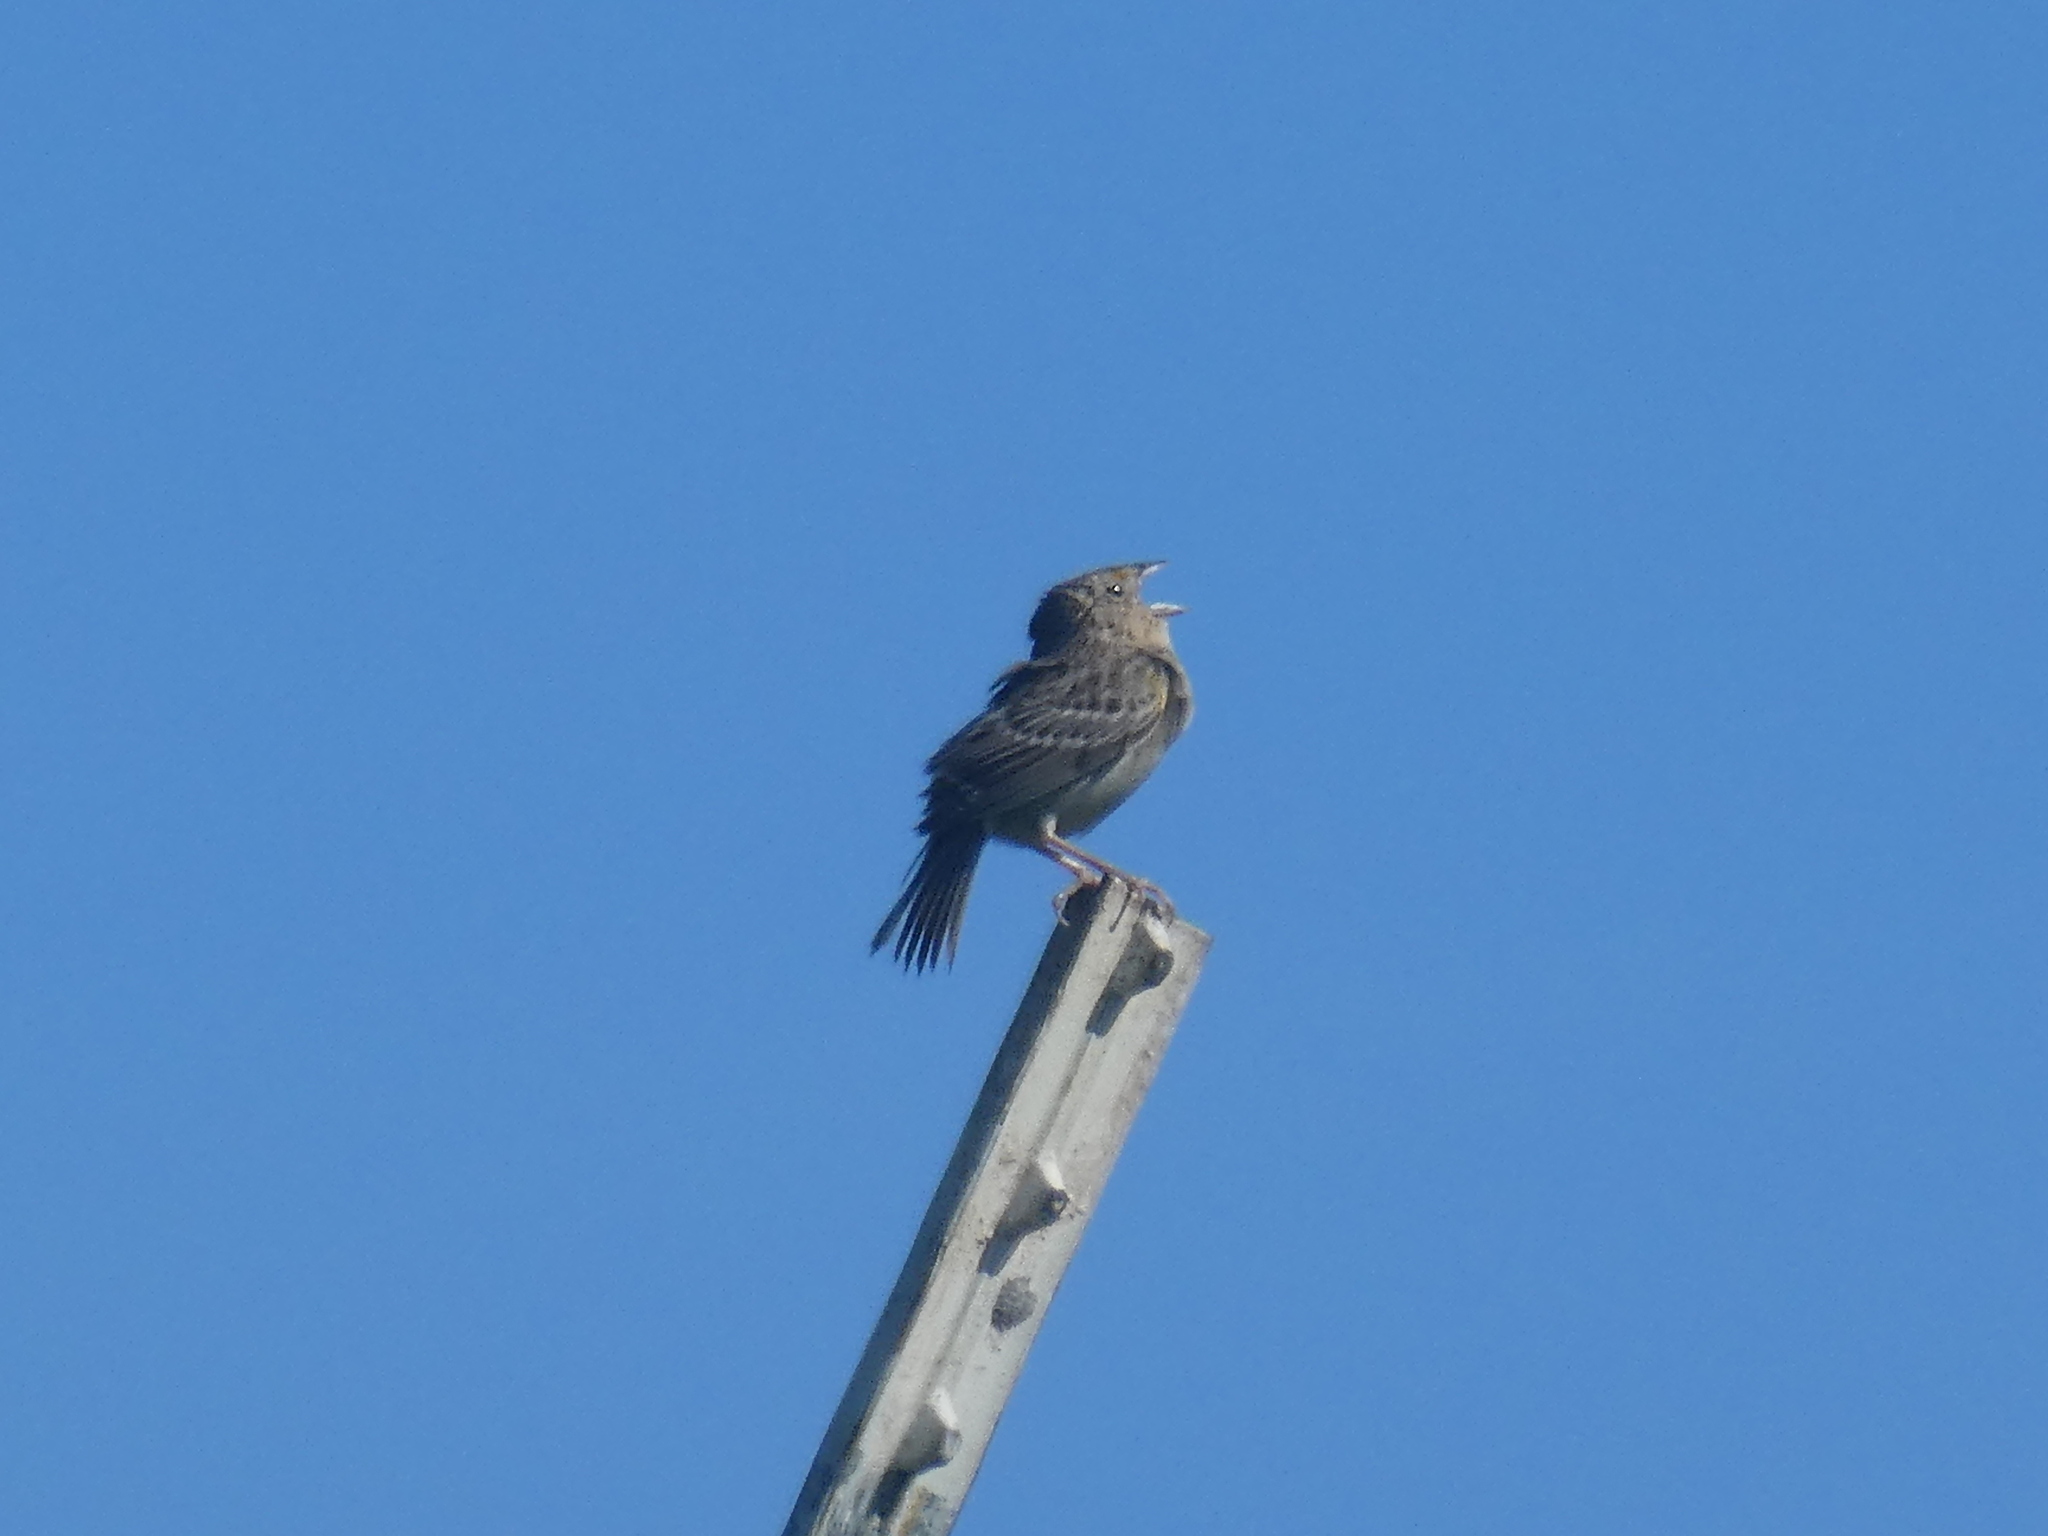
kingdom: Animalia
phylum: Chordata
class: Aves
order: Passeriformes
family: Passerellidae
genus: Ammodramus
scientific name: Ammodramus savannarum
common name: Grasshopper sparrow
